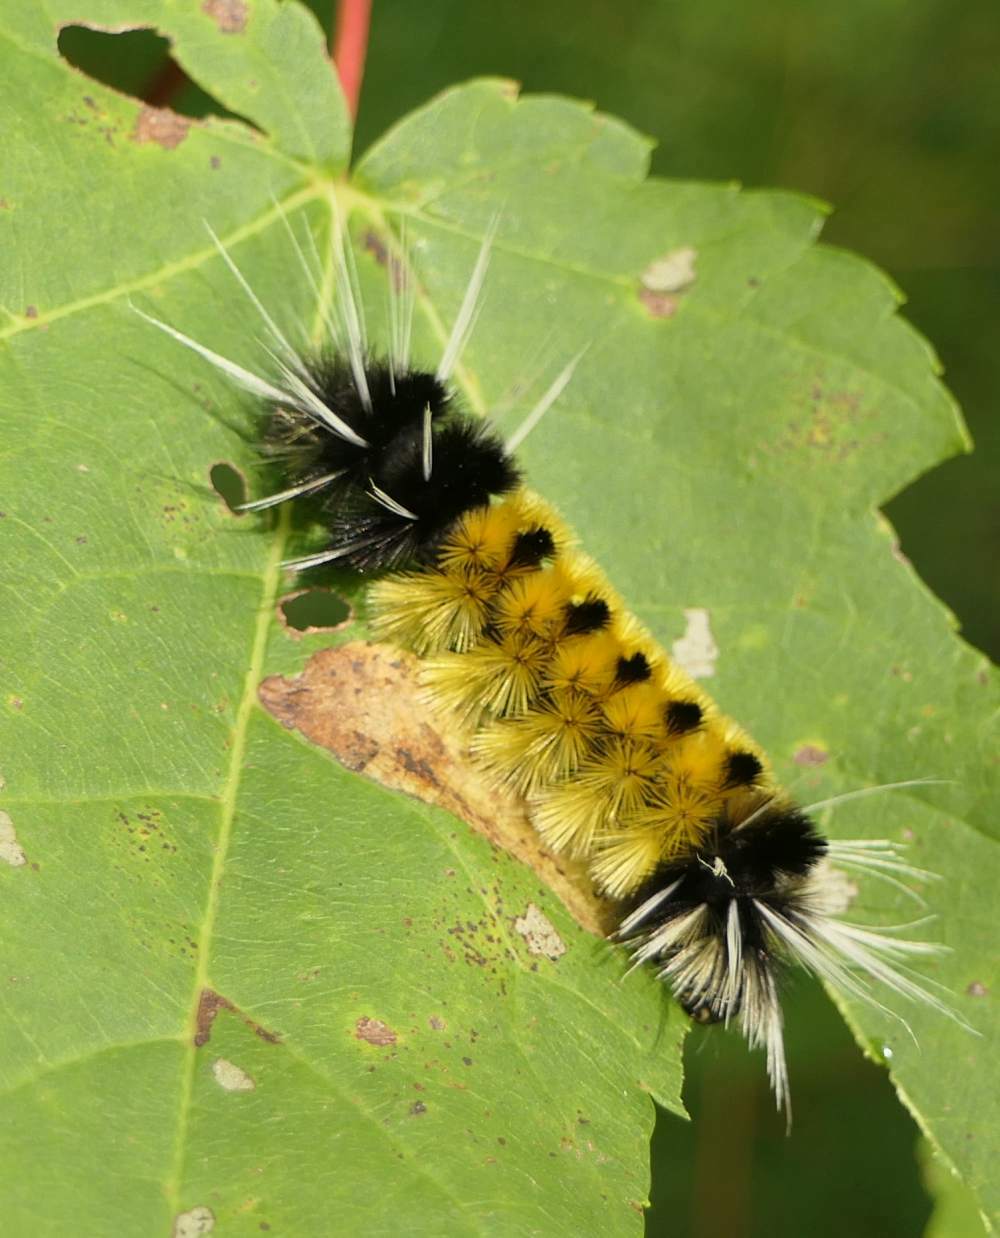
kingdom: Animalia
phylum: Arthropoda
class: Insecta
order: Lepidoptera
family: Erebidae
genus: Lophocampa
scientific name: Lophocampa maculata
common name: Spotted tussock moth
